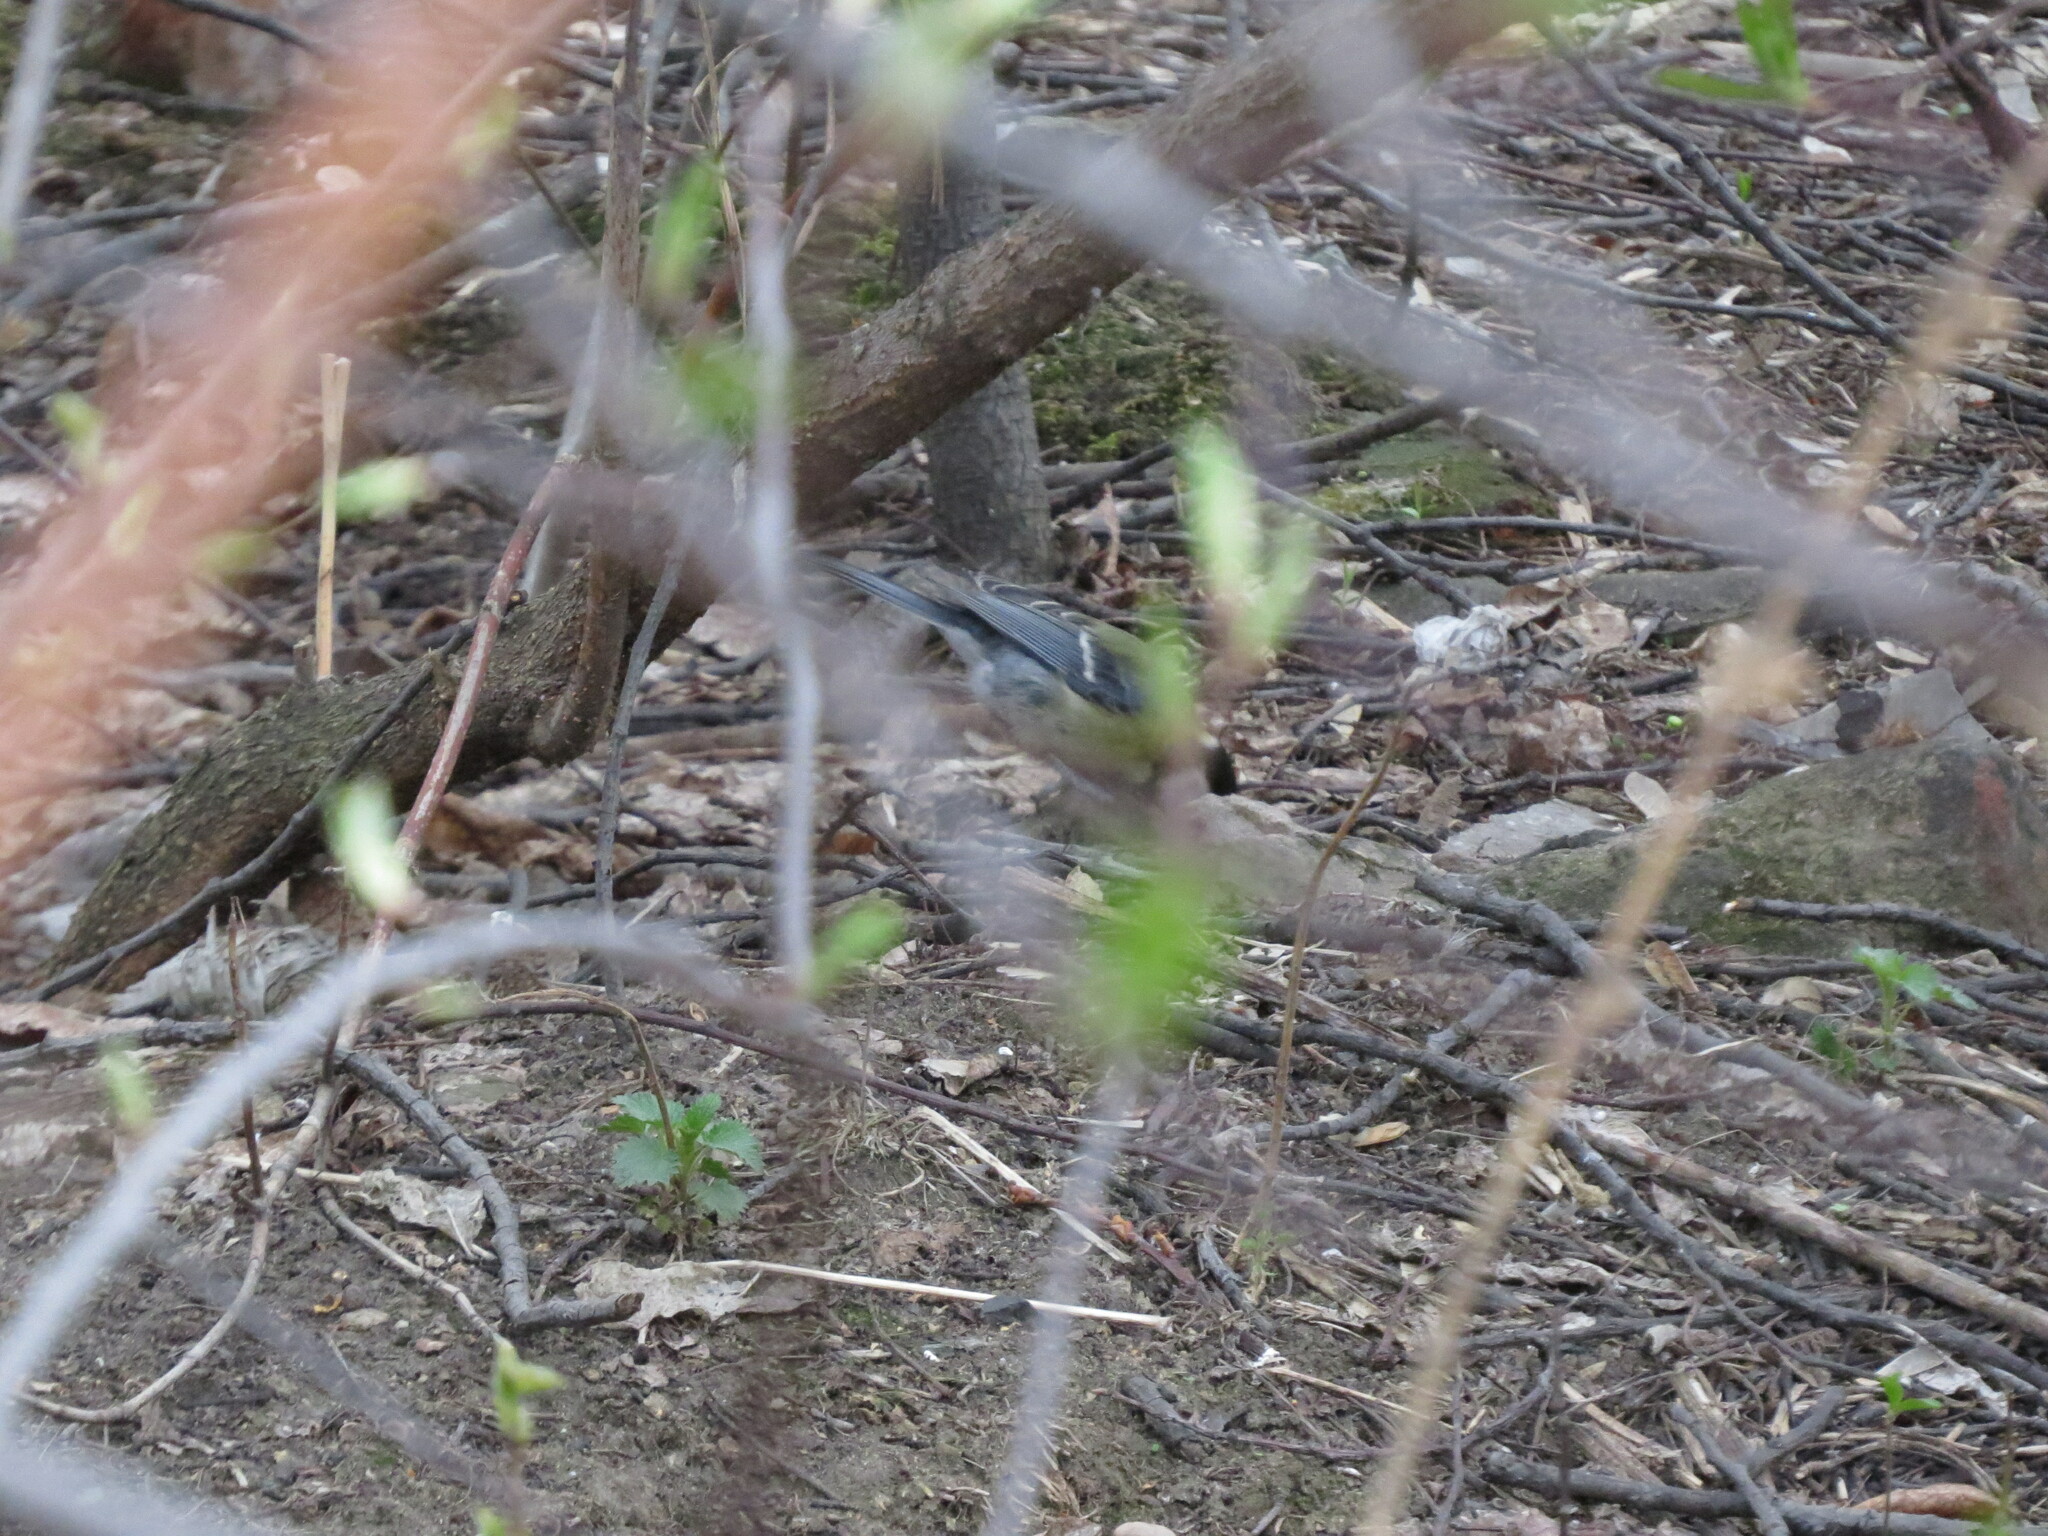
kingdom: Animalia
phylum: Chordata
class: Aves
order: Passeriformes
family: Paridae
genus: Parus
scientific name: Parus major
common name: Great tit
